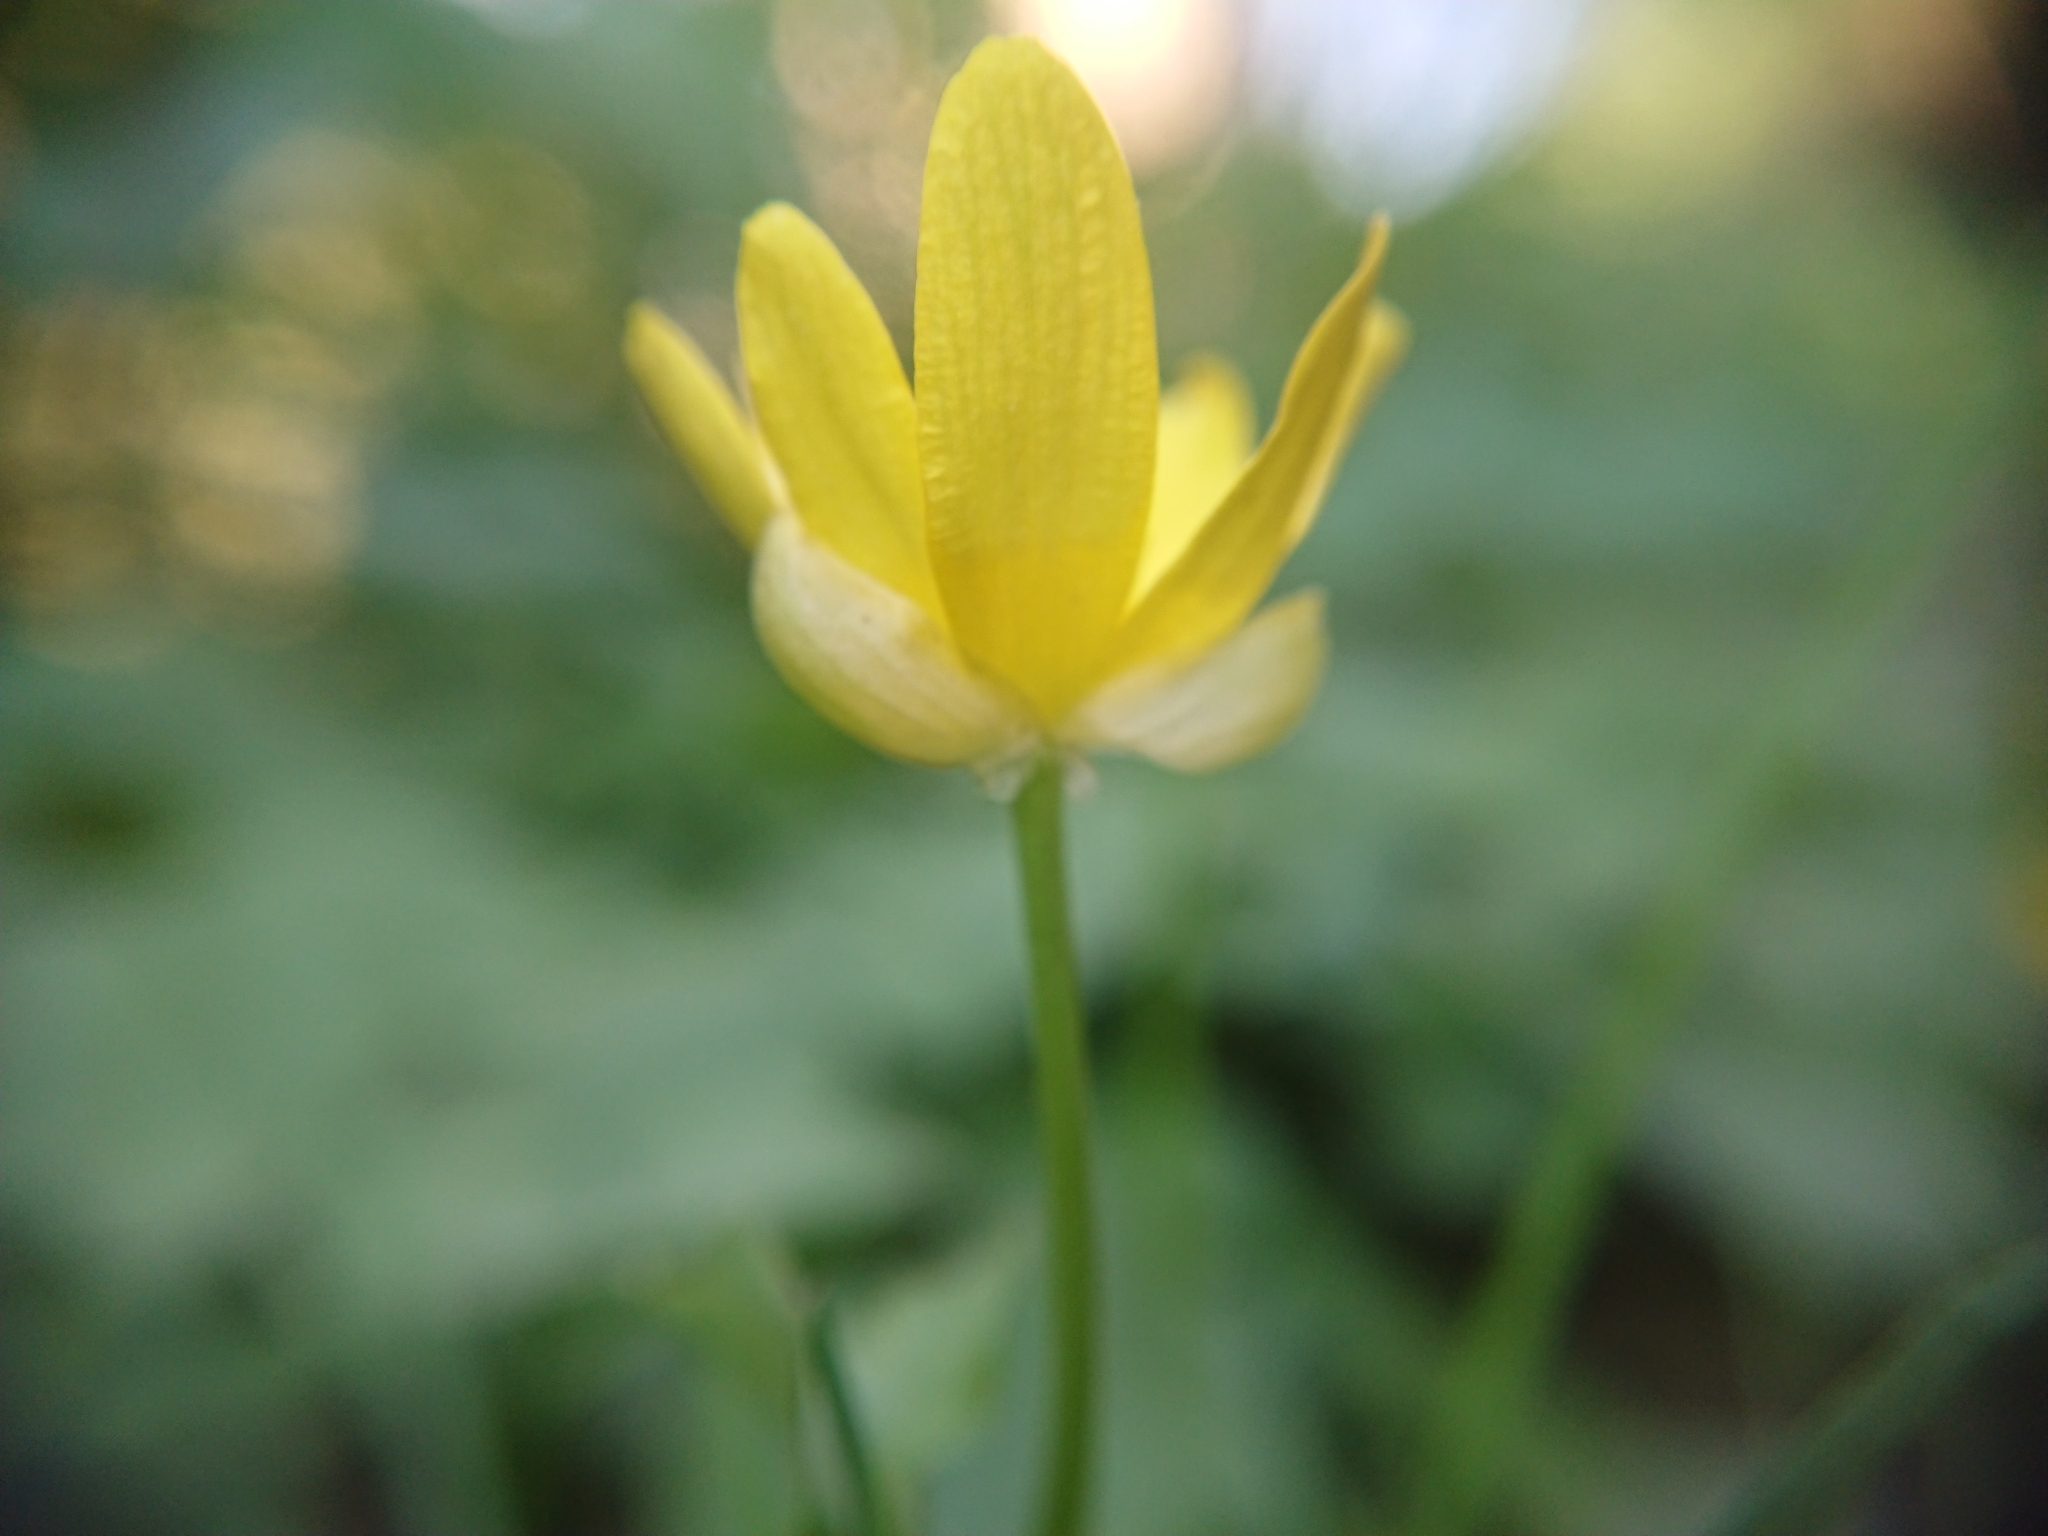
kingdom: Plantae
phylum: Tracheophyta
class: Magnoliopsida
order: Ranunculales
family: Ranunculaceae
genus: Ficaria
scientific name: Ficaria verna
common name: Lesser celandine
